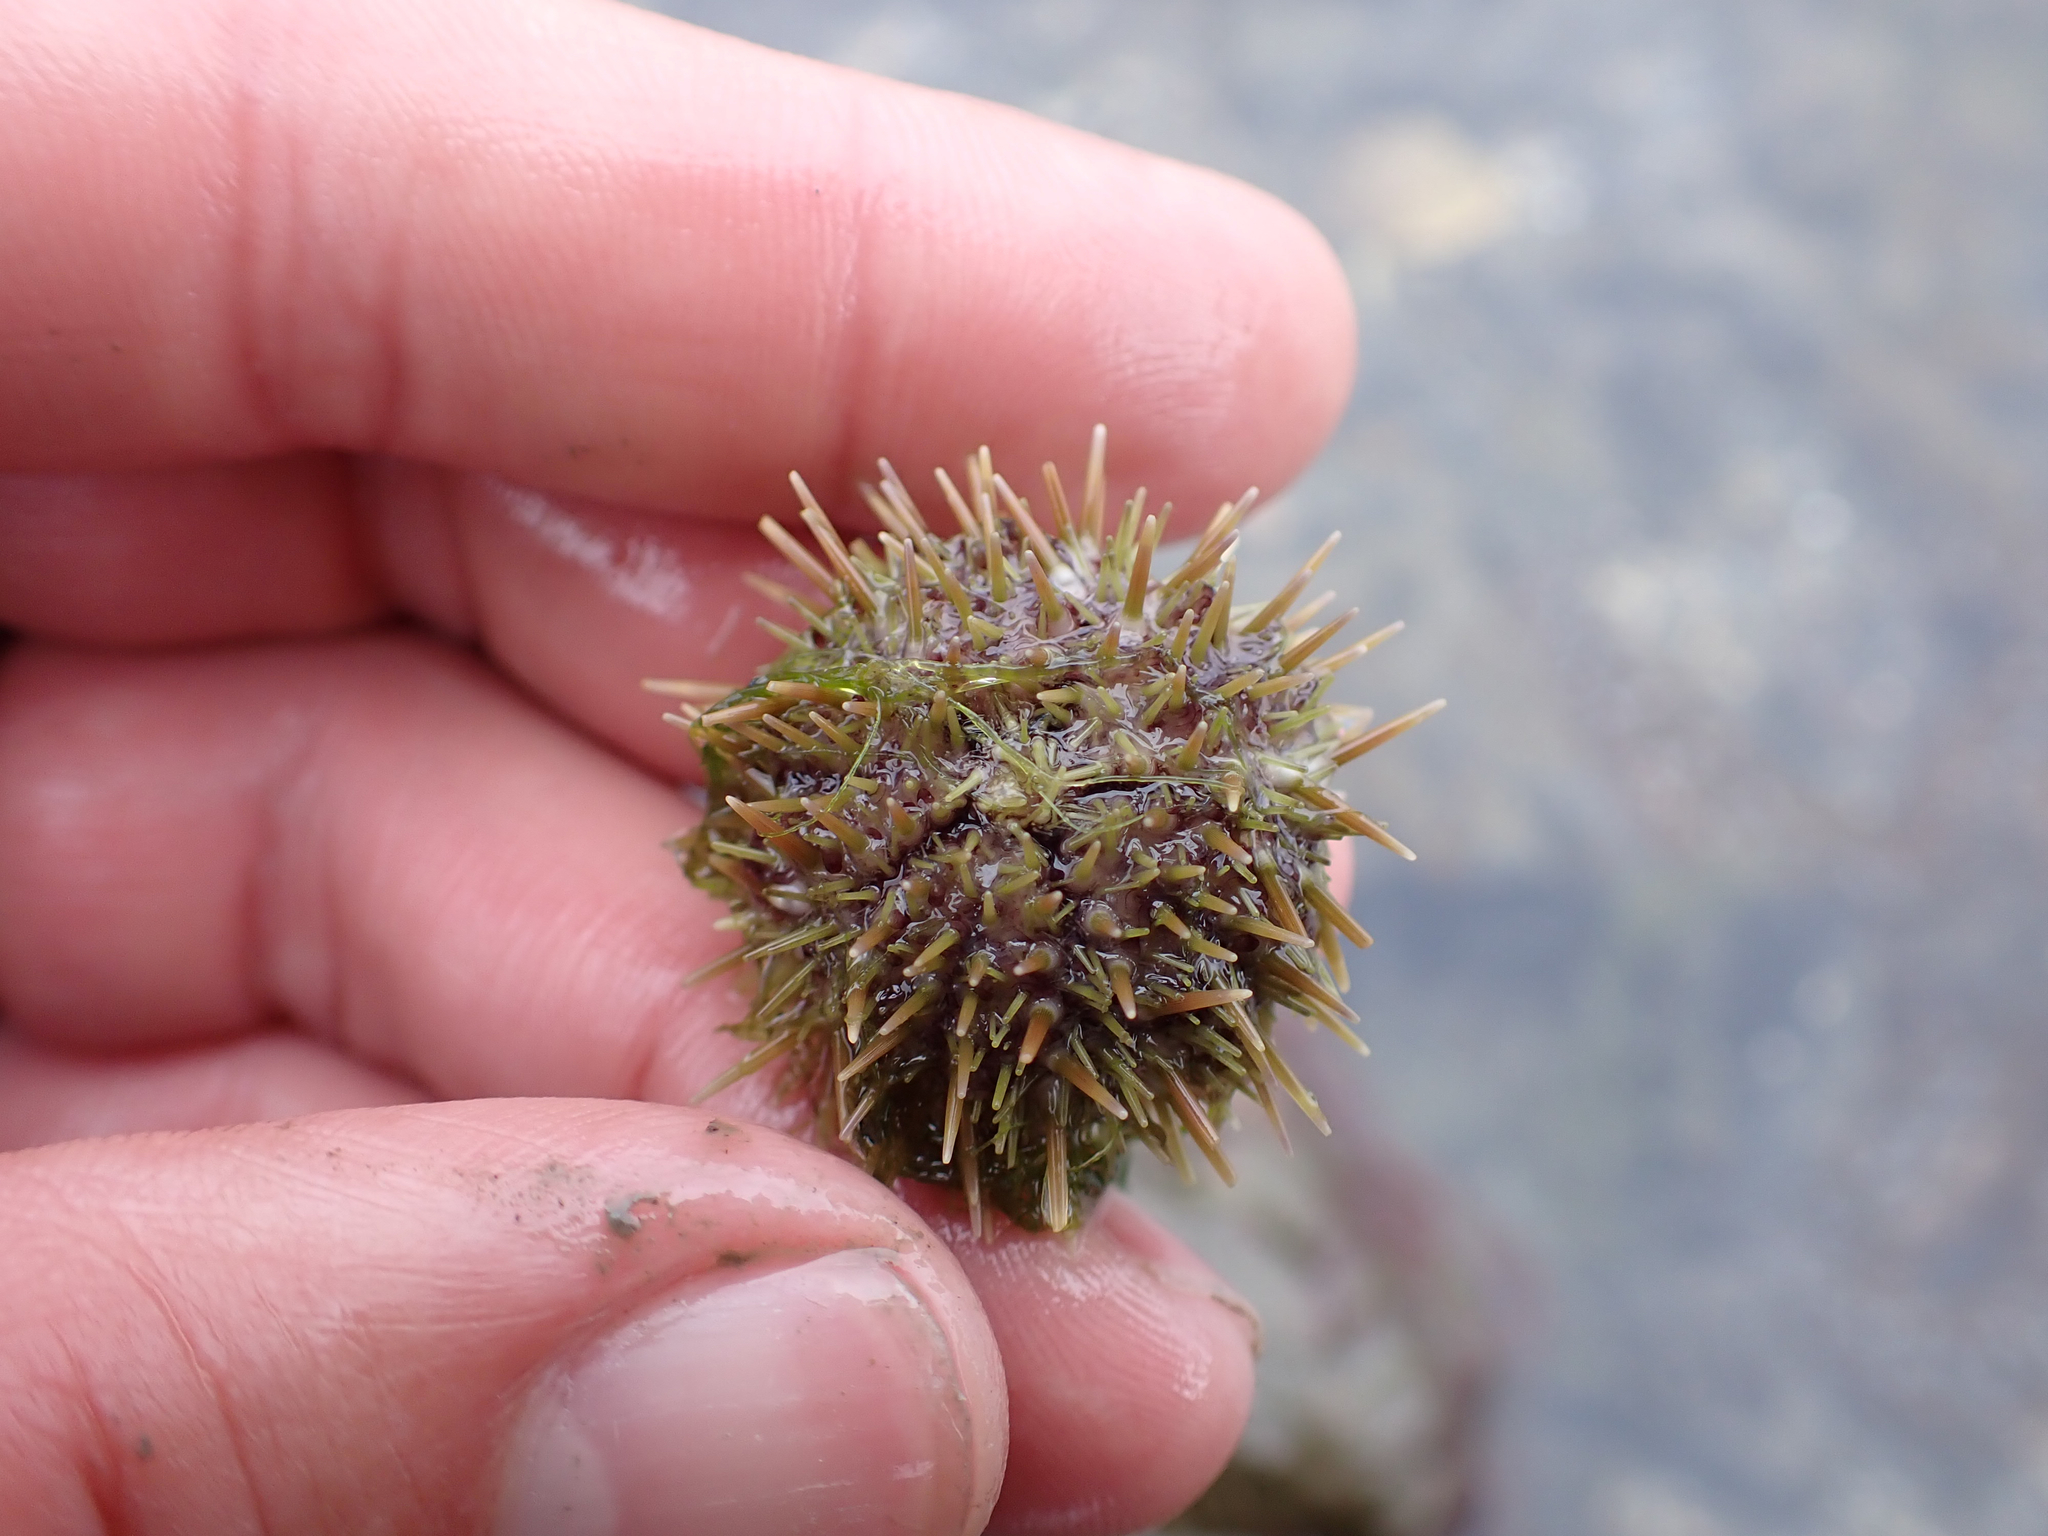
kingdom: Animalia
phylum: Echinodermata
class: Echinoidea
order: Camarodonta
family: Strongylocentrotidae
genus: Strongylocentrotus
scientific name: Strongylocentrotus droebachiensis
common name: Northern sea urchin
